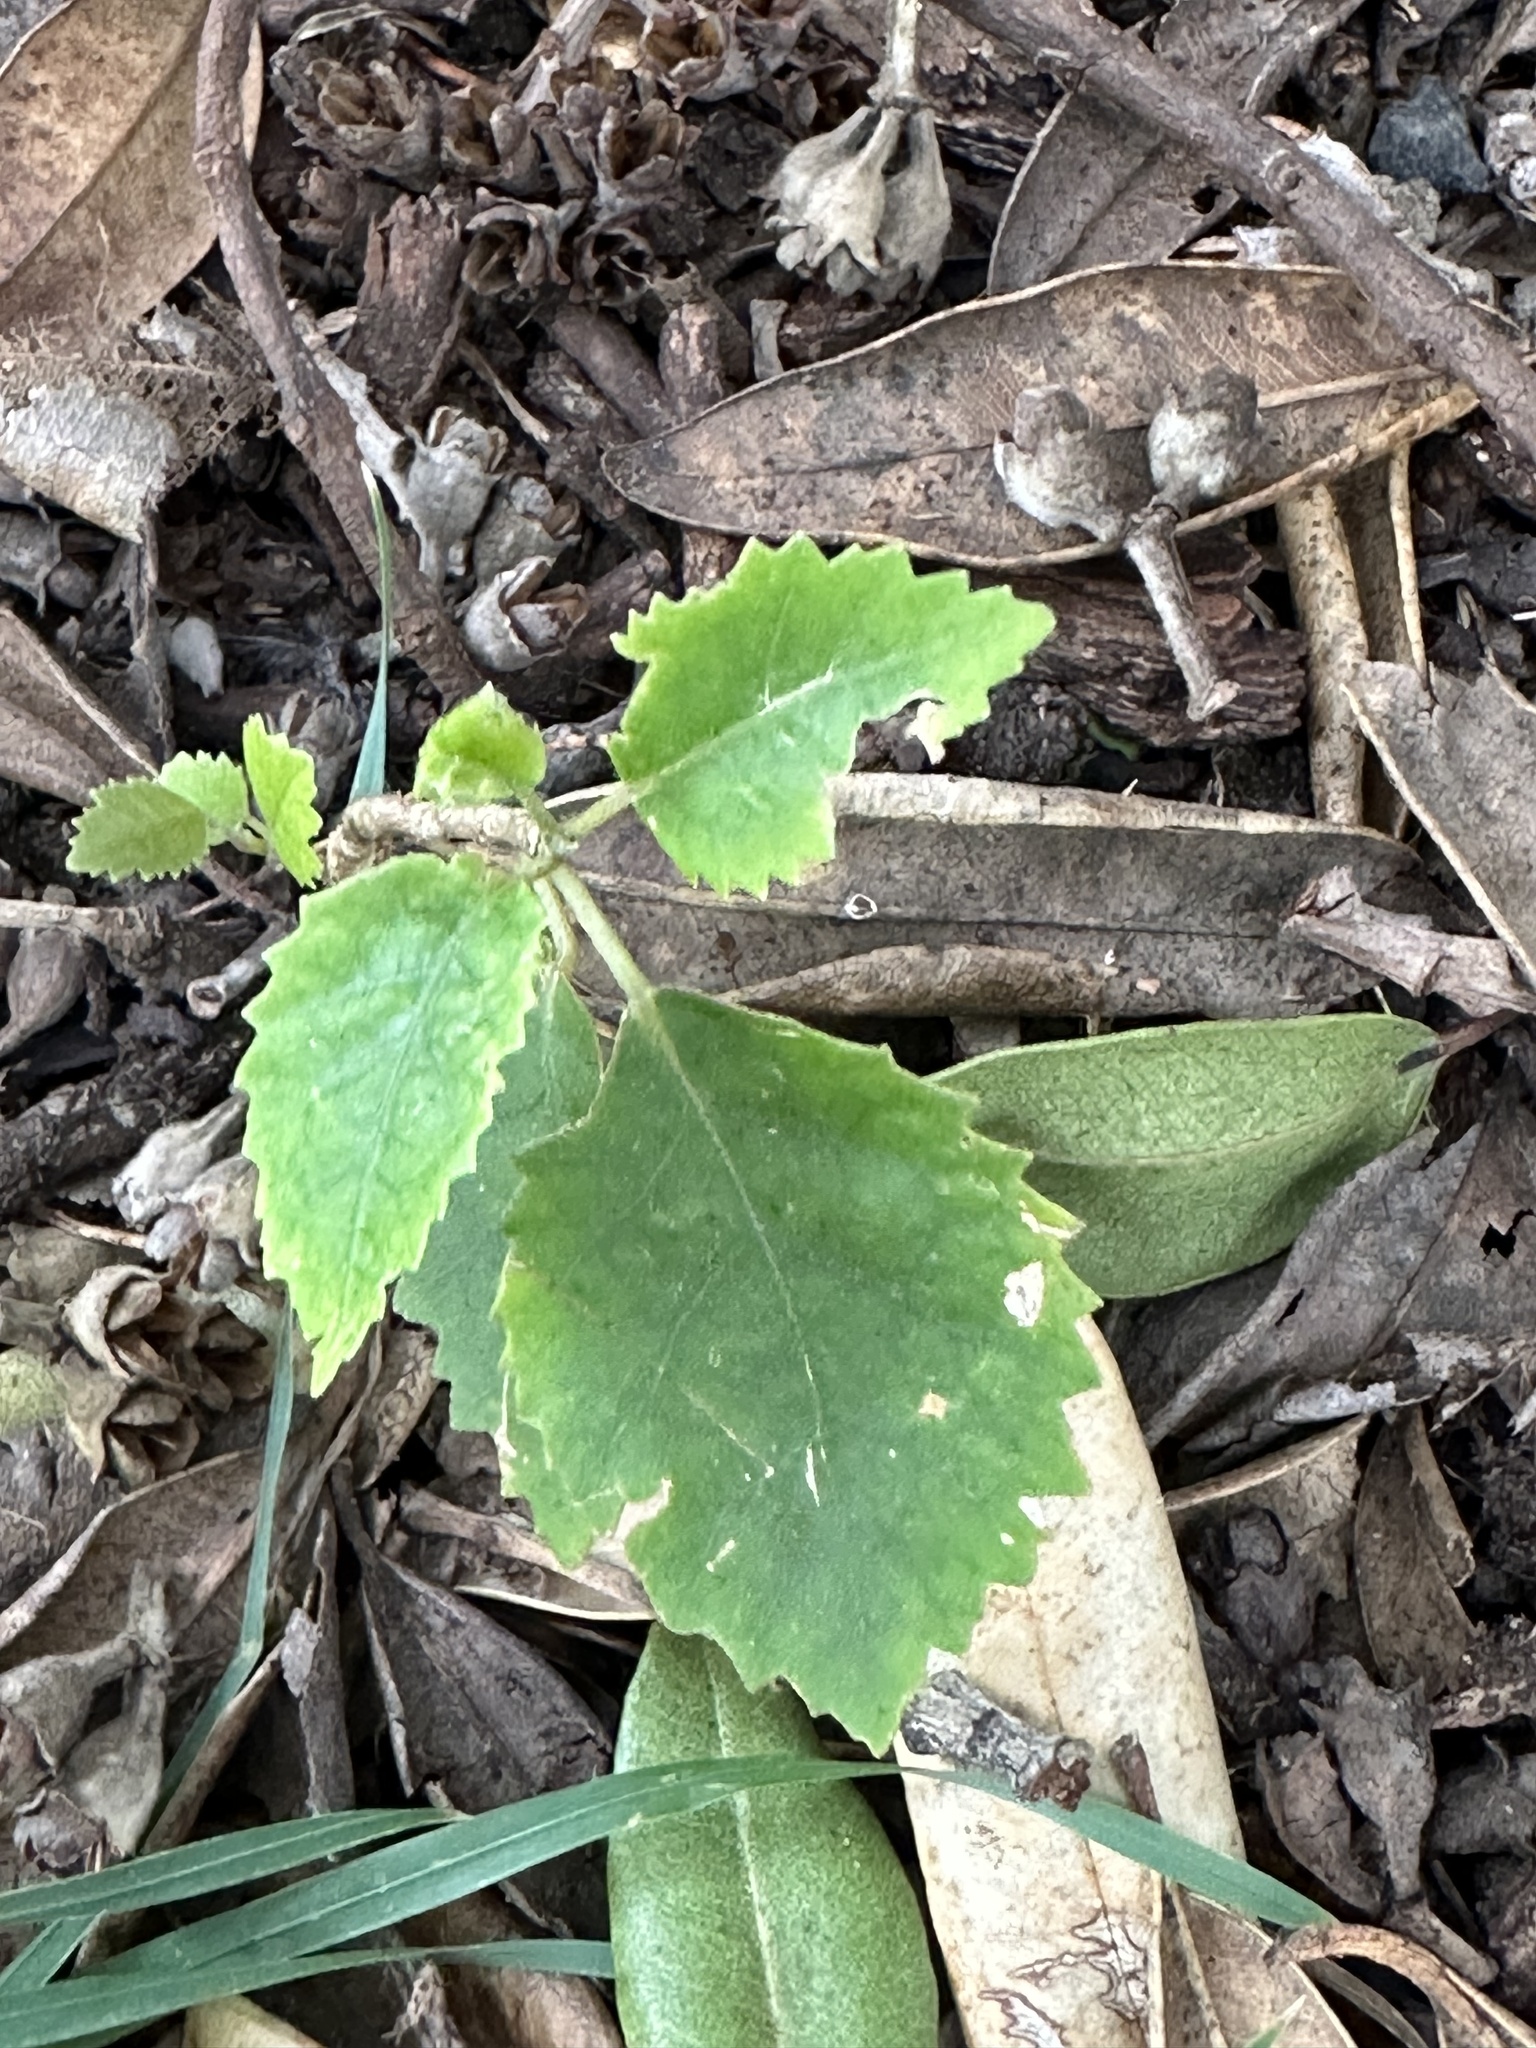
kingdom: Plantae
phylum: Tracheophyta
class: Magnoliopsida
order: Malvales
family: Malvaceae
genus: Hoheria
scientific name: Hoheria populnea
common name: Lacebark
